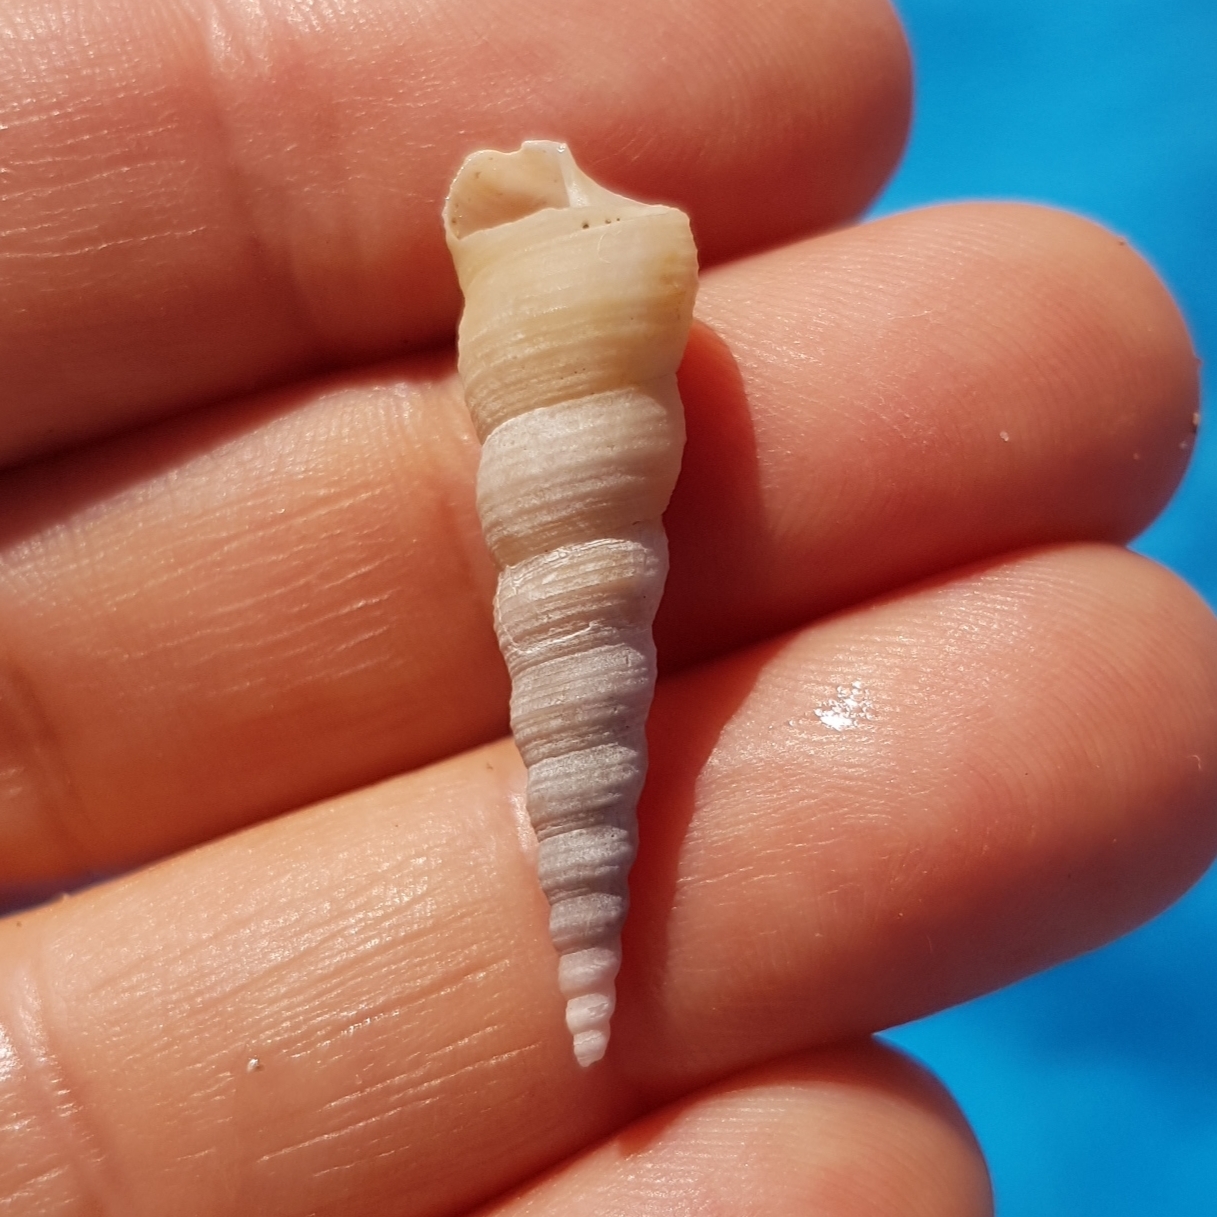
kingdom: Animalia
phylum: Mollusca
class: Gastropoda
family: Turritellidae
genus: Turritellinella
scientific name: Turritellinella tricarinata
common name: Auger shell
